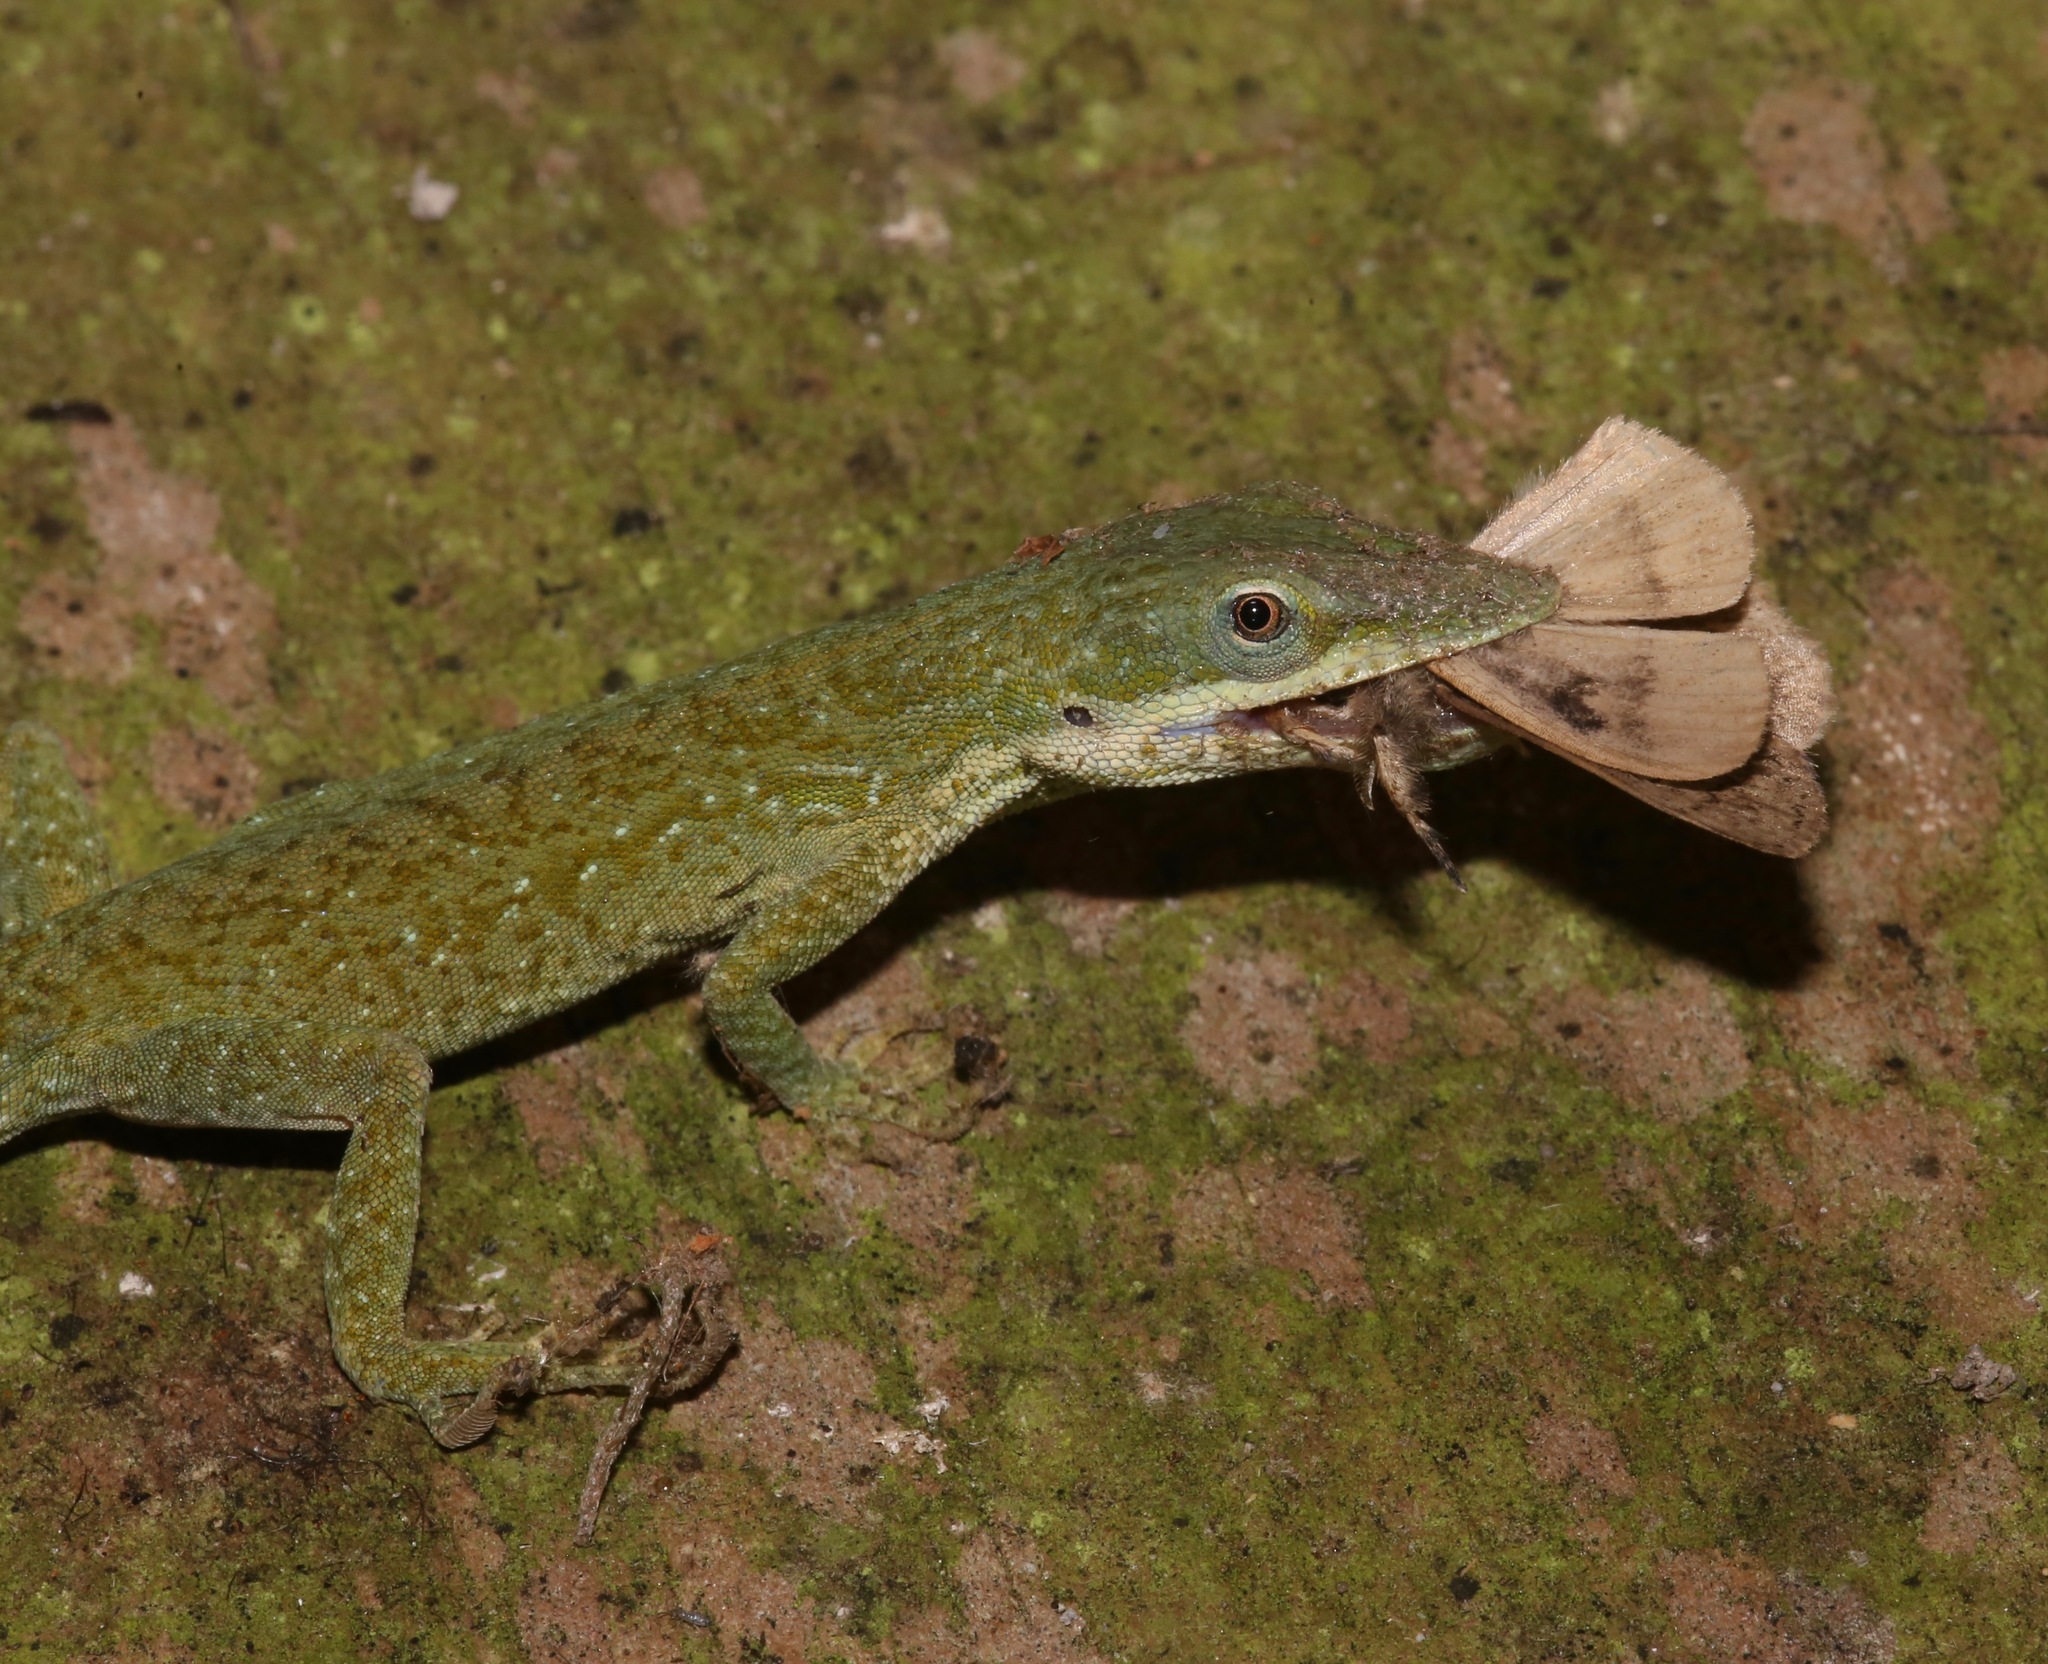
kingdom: Animalia
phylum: Chordata
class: Squamata
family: Dactyloidae
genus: Anolis
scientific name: Anolis carolinensis
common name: Green anole
